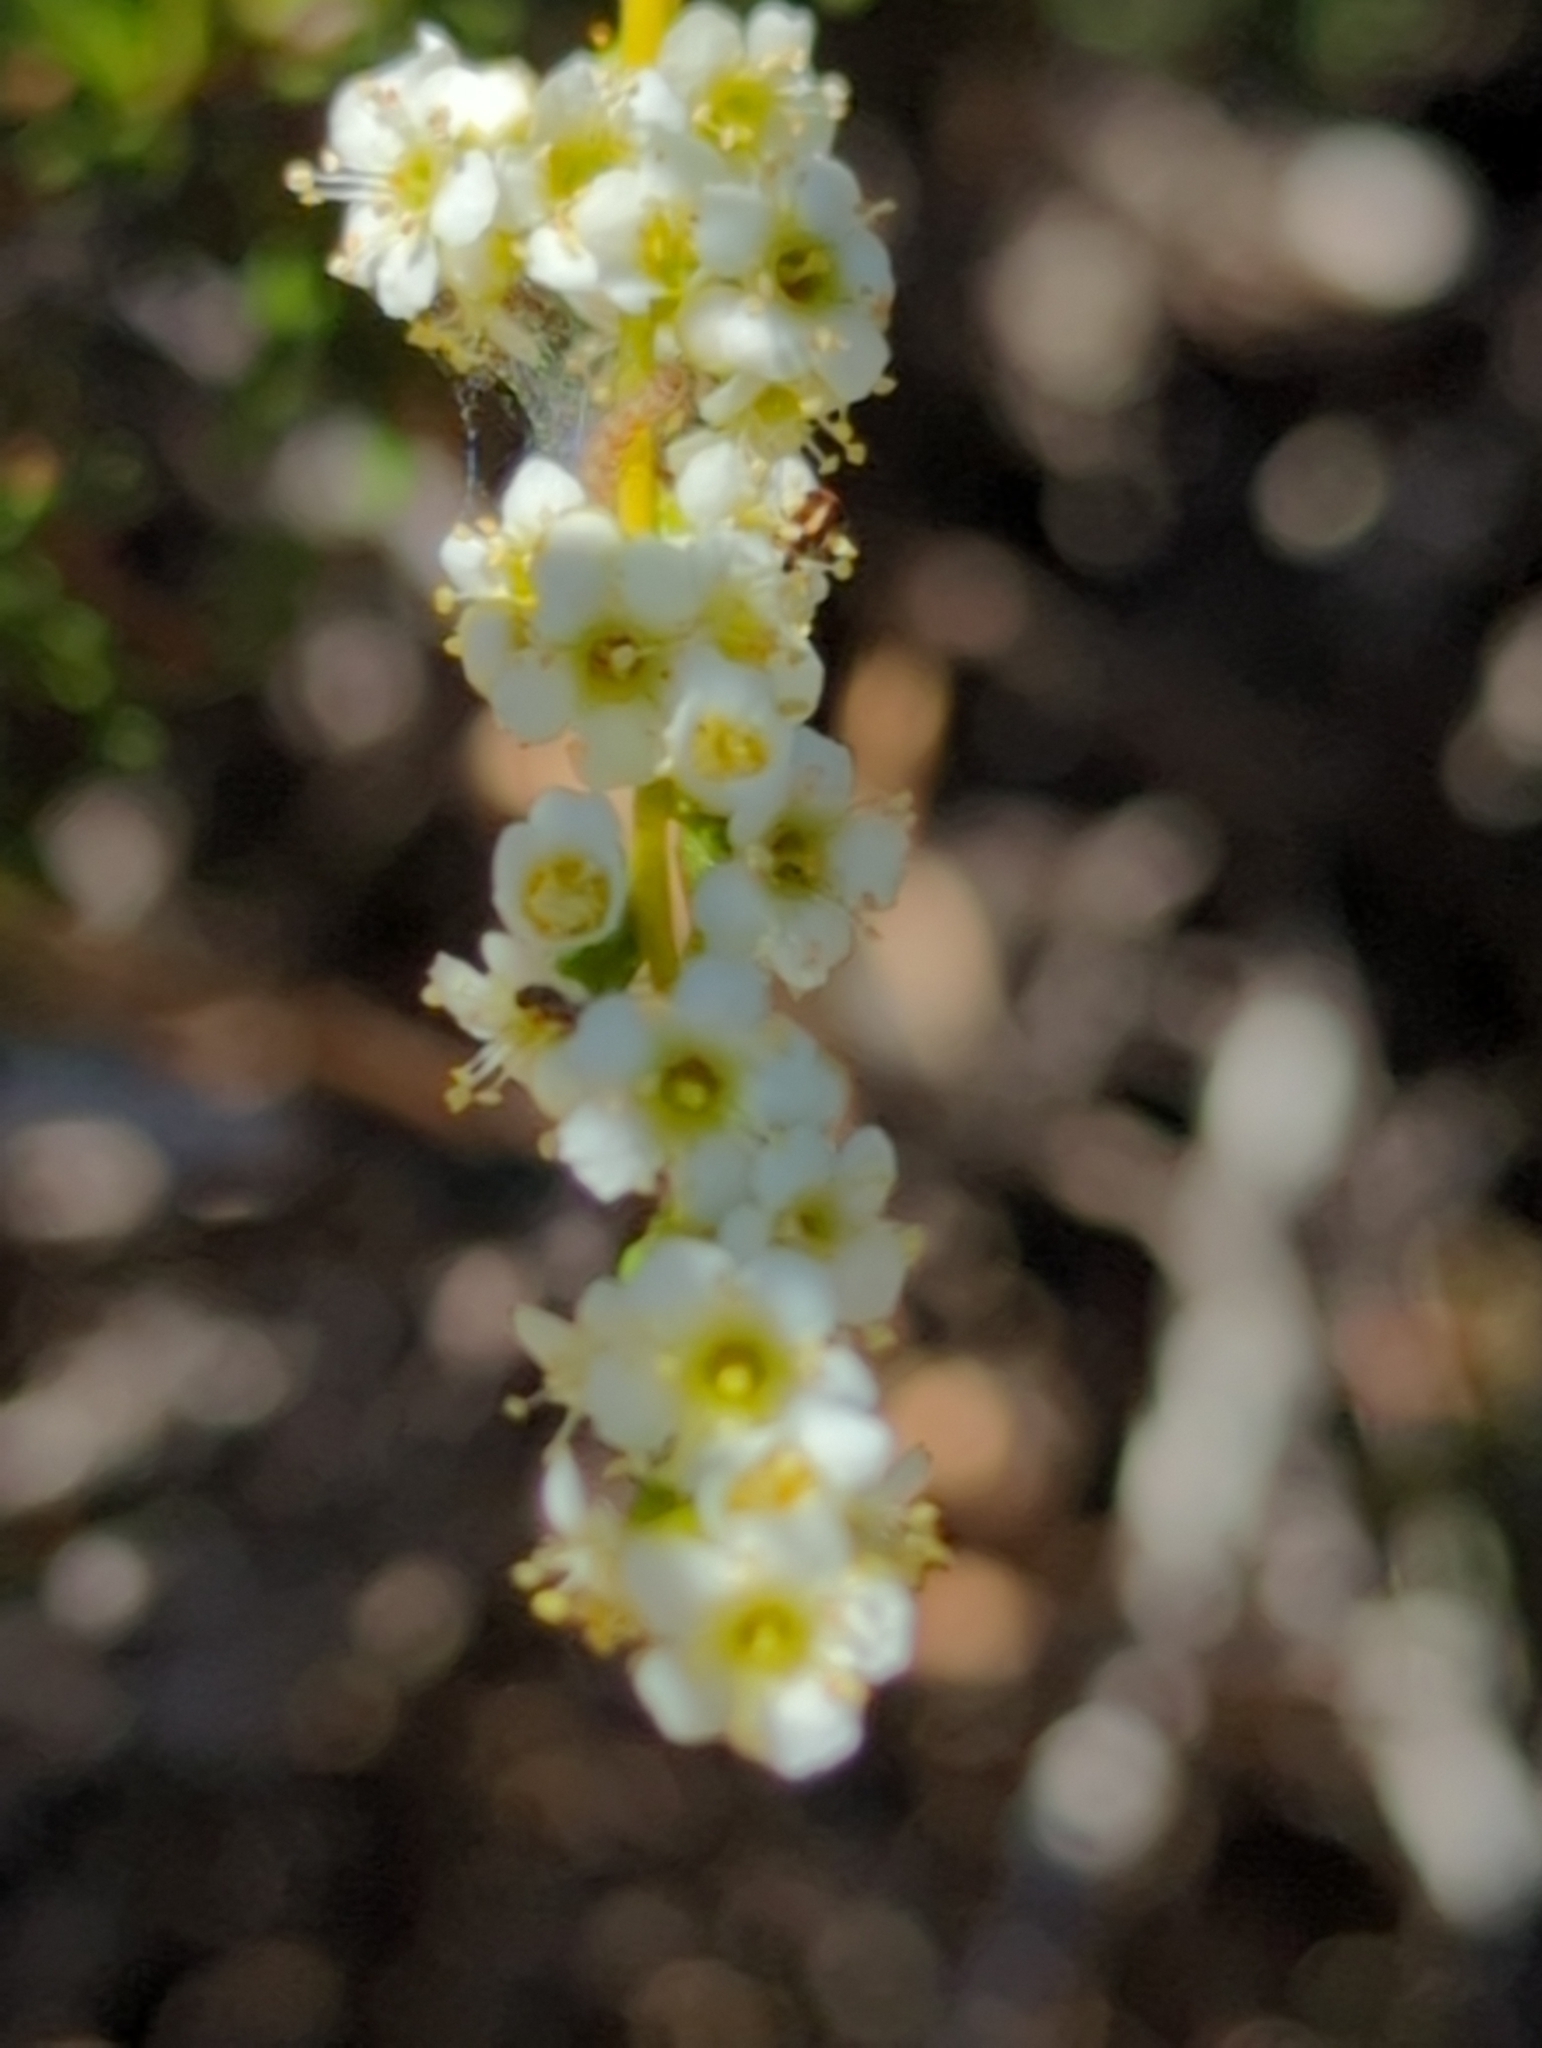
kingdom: Plantae
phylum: Tracheophyta
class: Magnoliopsida
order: Rosales
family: Rosaceae
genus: Adenostoma
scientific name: Adenostoma fasciculatum
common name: Chamise
